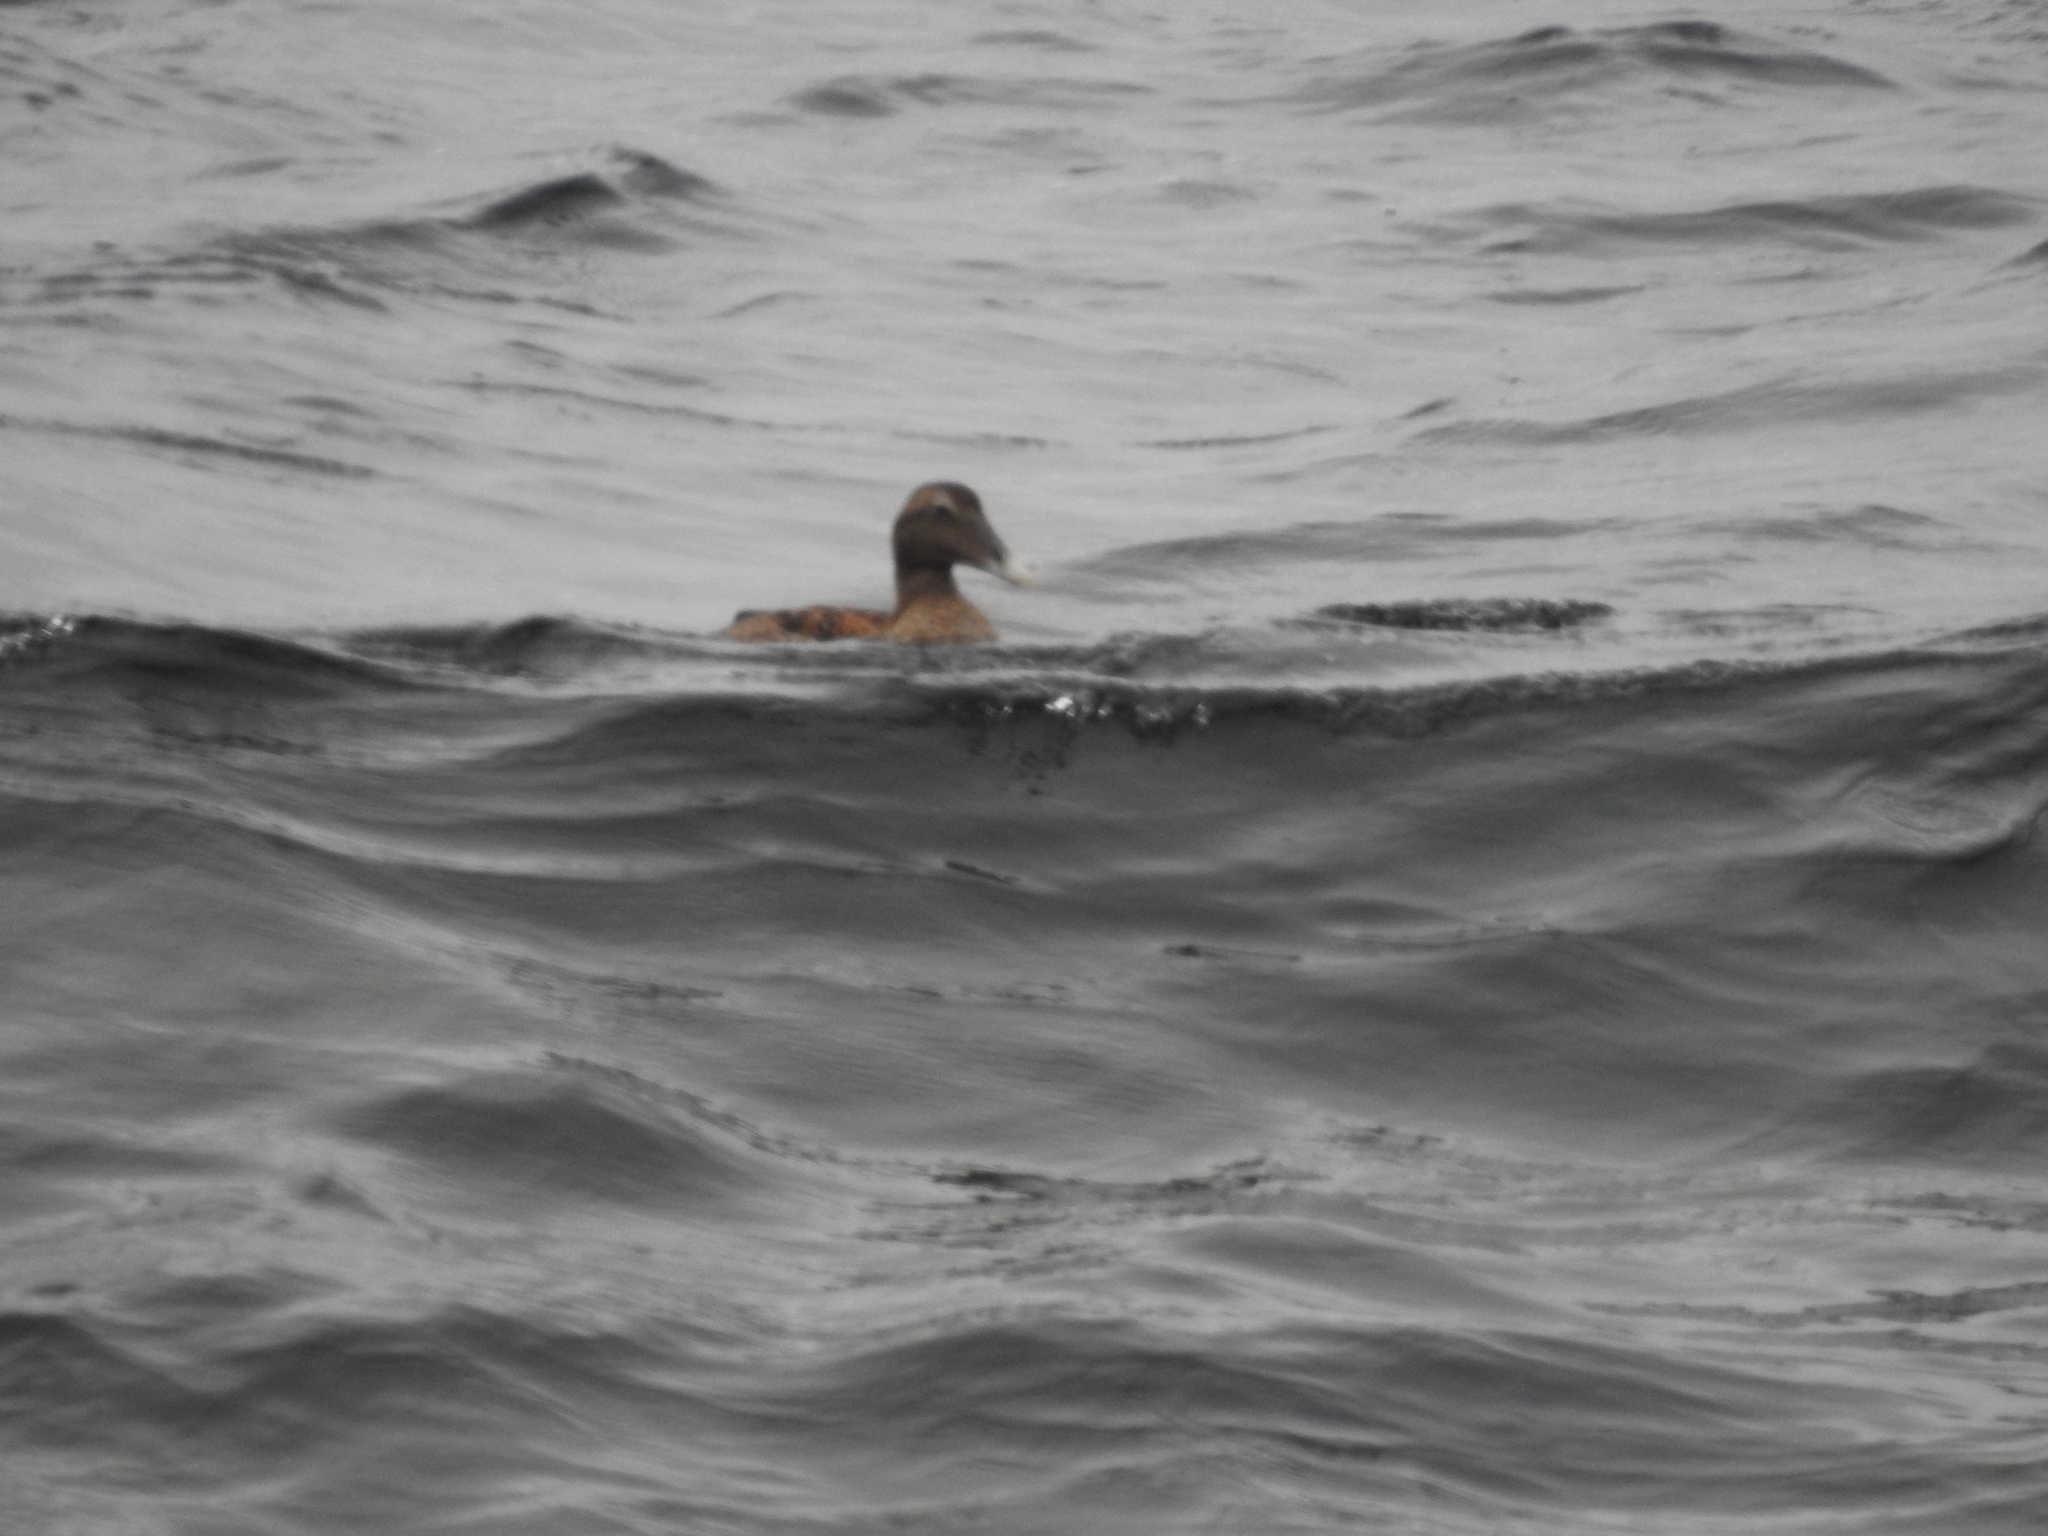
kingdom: Animalia
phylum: Chordata
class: Aves
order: Anseriformes
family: Anatidae
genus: Somateria
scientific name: Somateria mollissima
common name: Common eider
